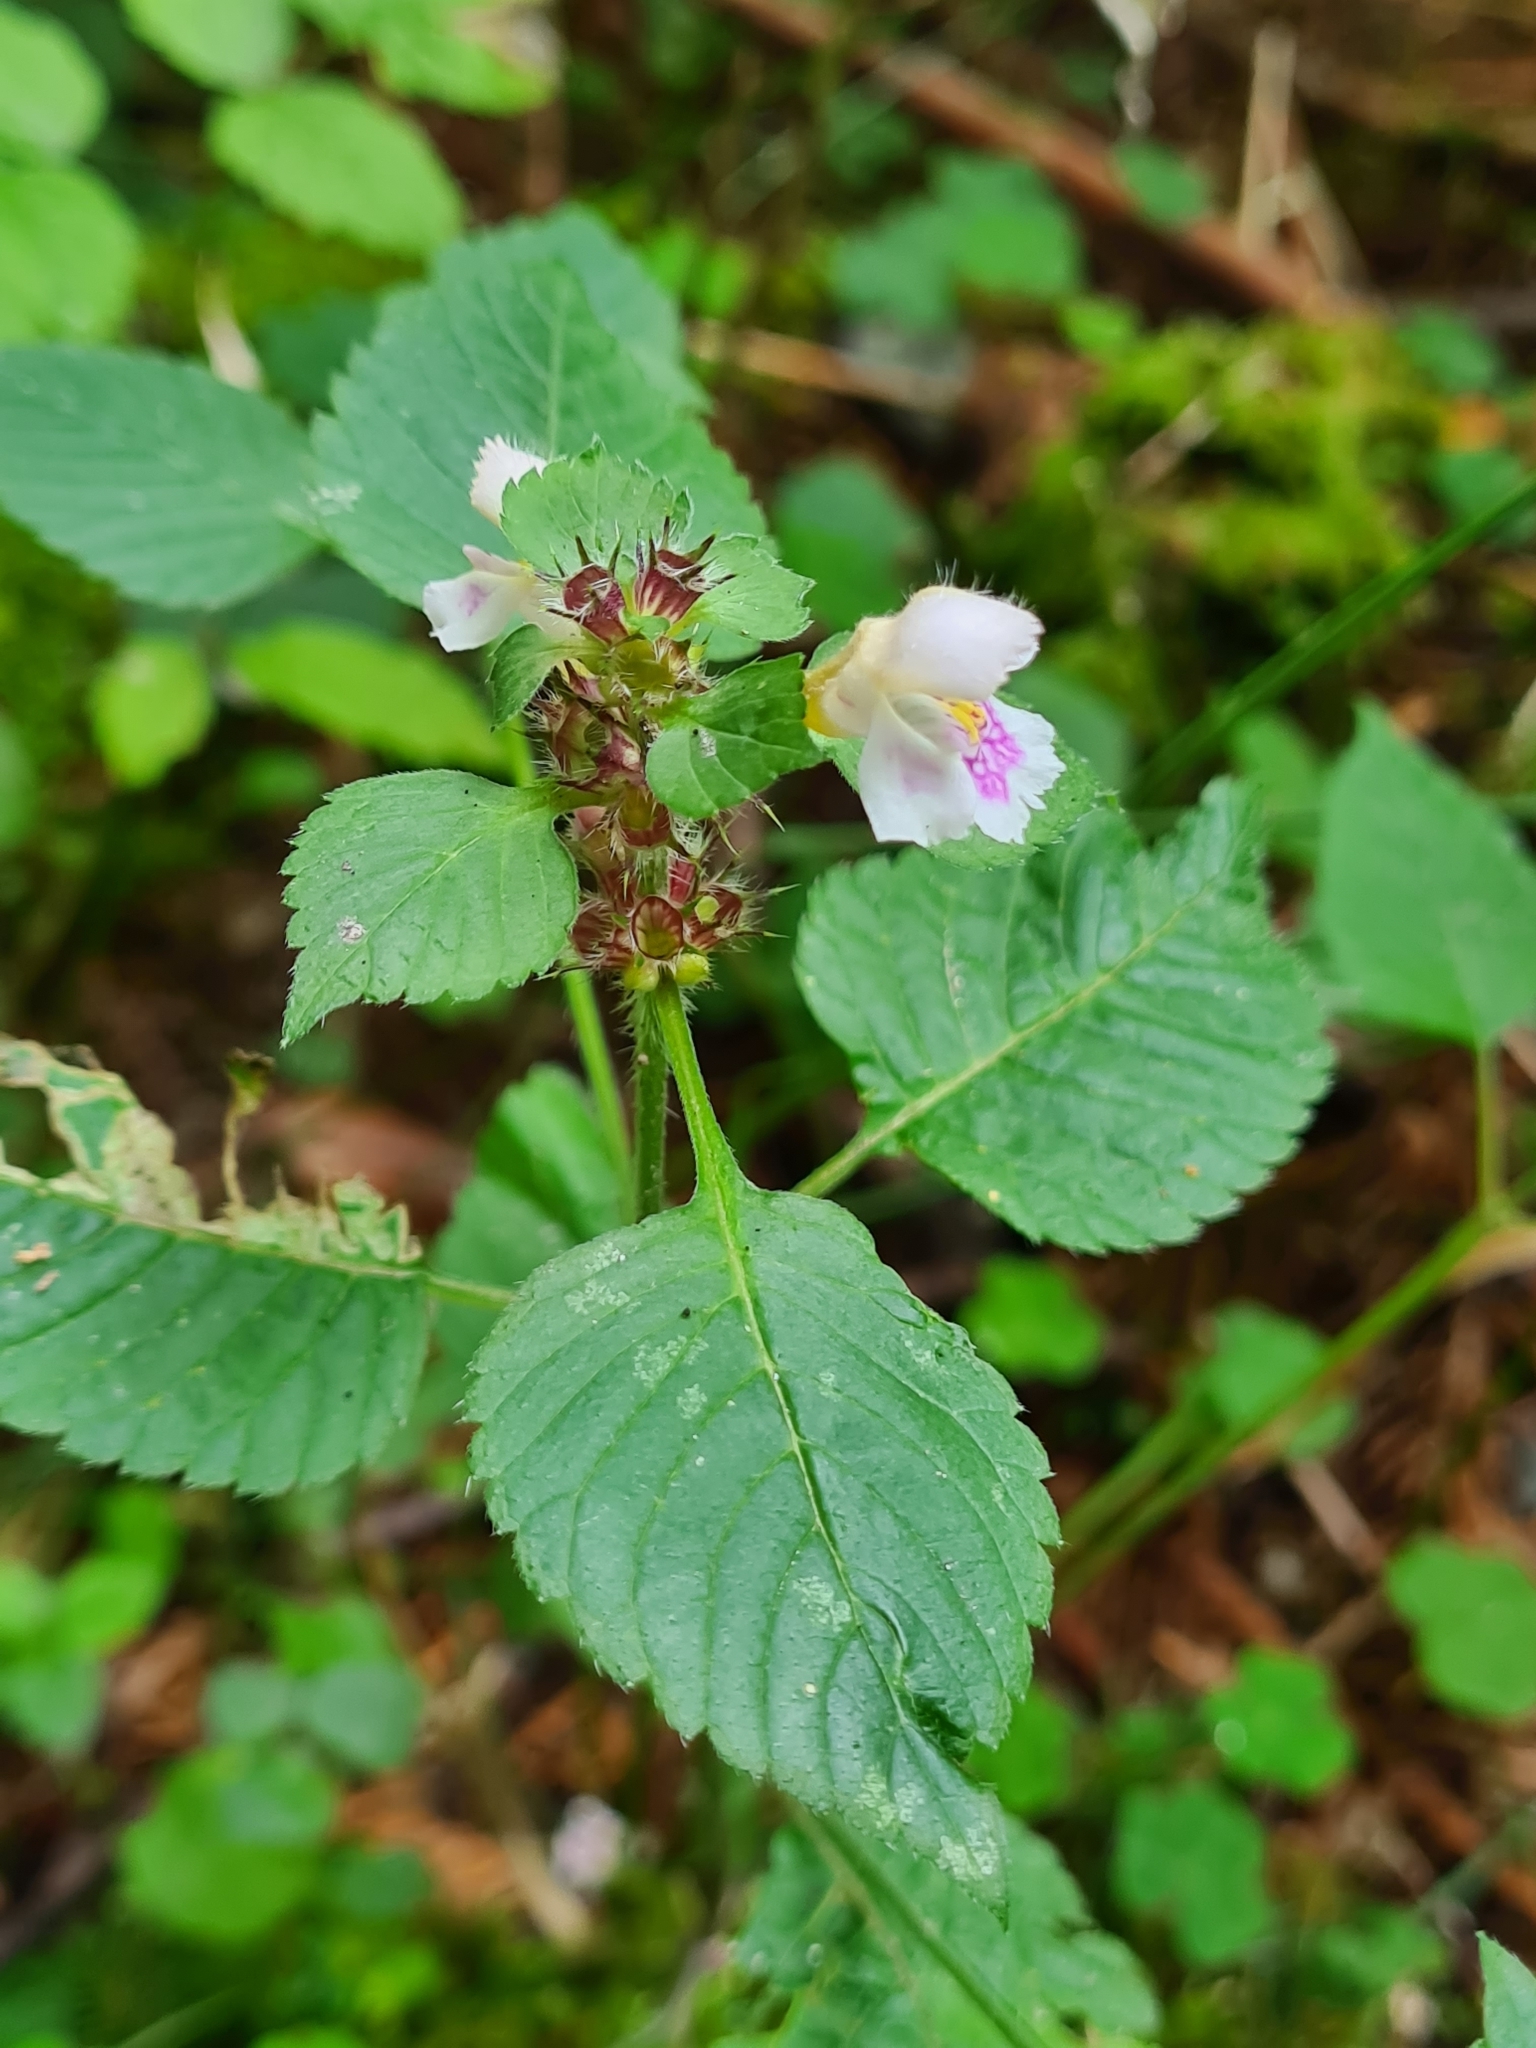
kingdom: Plantae
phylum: Tracheophyta
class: Magnoliopsida
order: Lamiales
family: Lamiaceae
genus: Galeopsis
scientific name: Galeopsis polychroma
